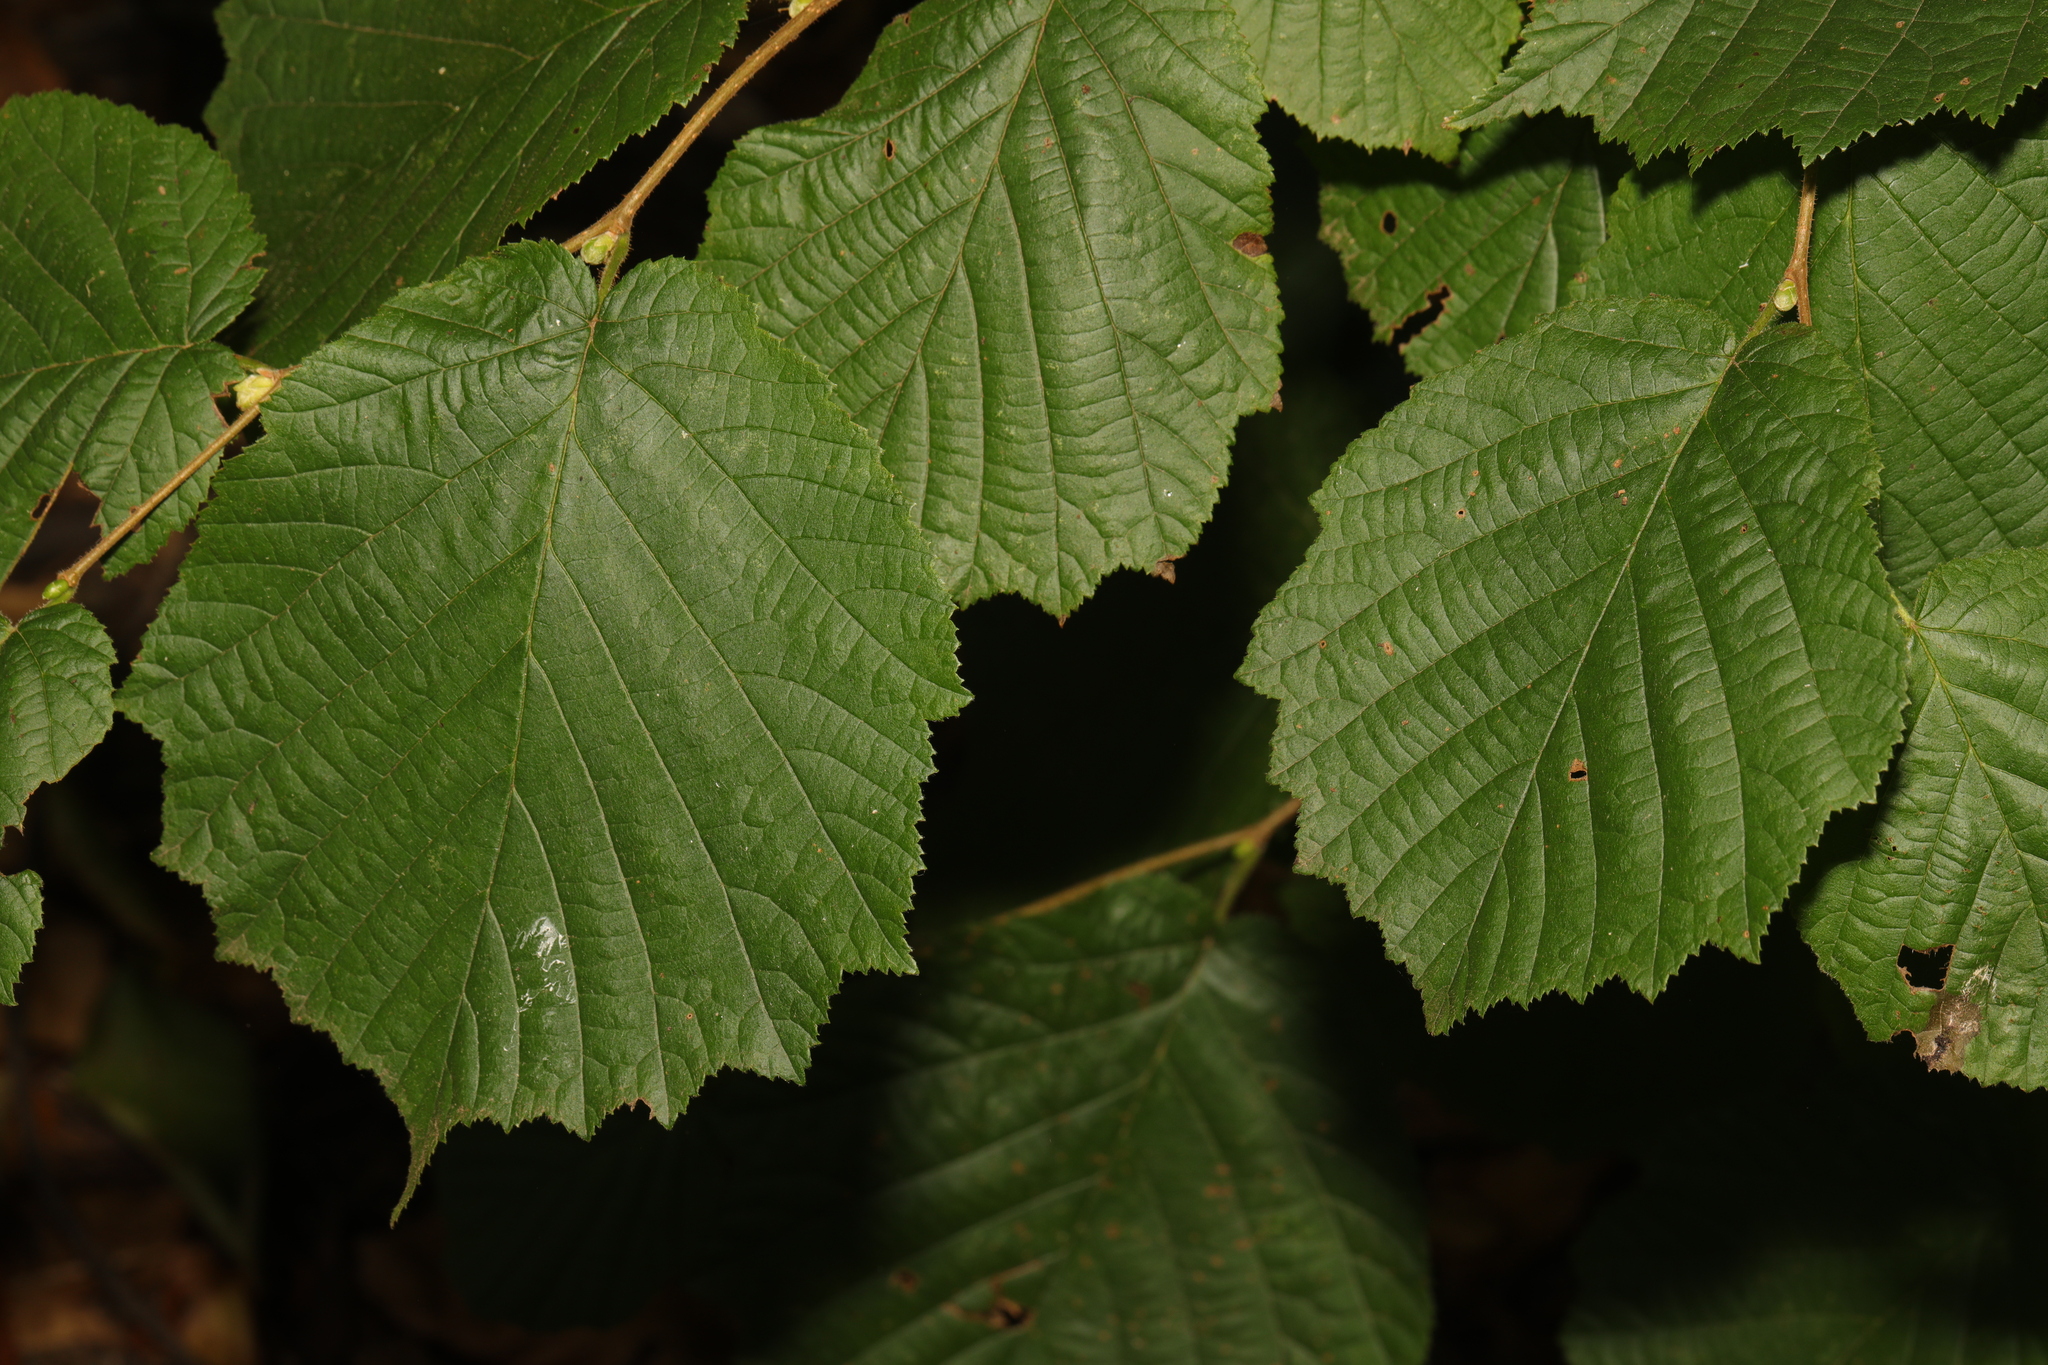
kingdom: Plantae
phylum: Tracheophyta
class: Magnoliopsida
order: Fagales
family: Betulaceae
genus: Corylus
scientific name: Corylus avellana
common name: European hazel
